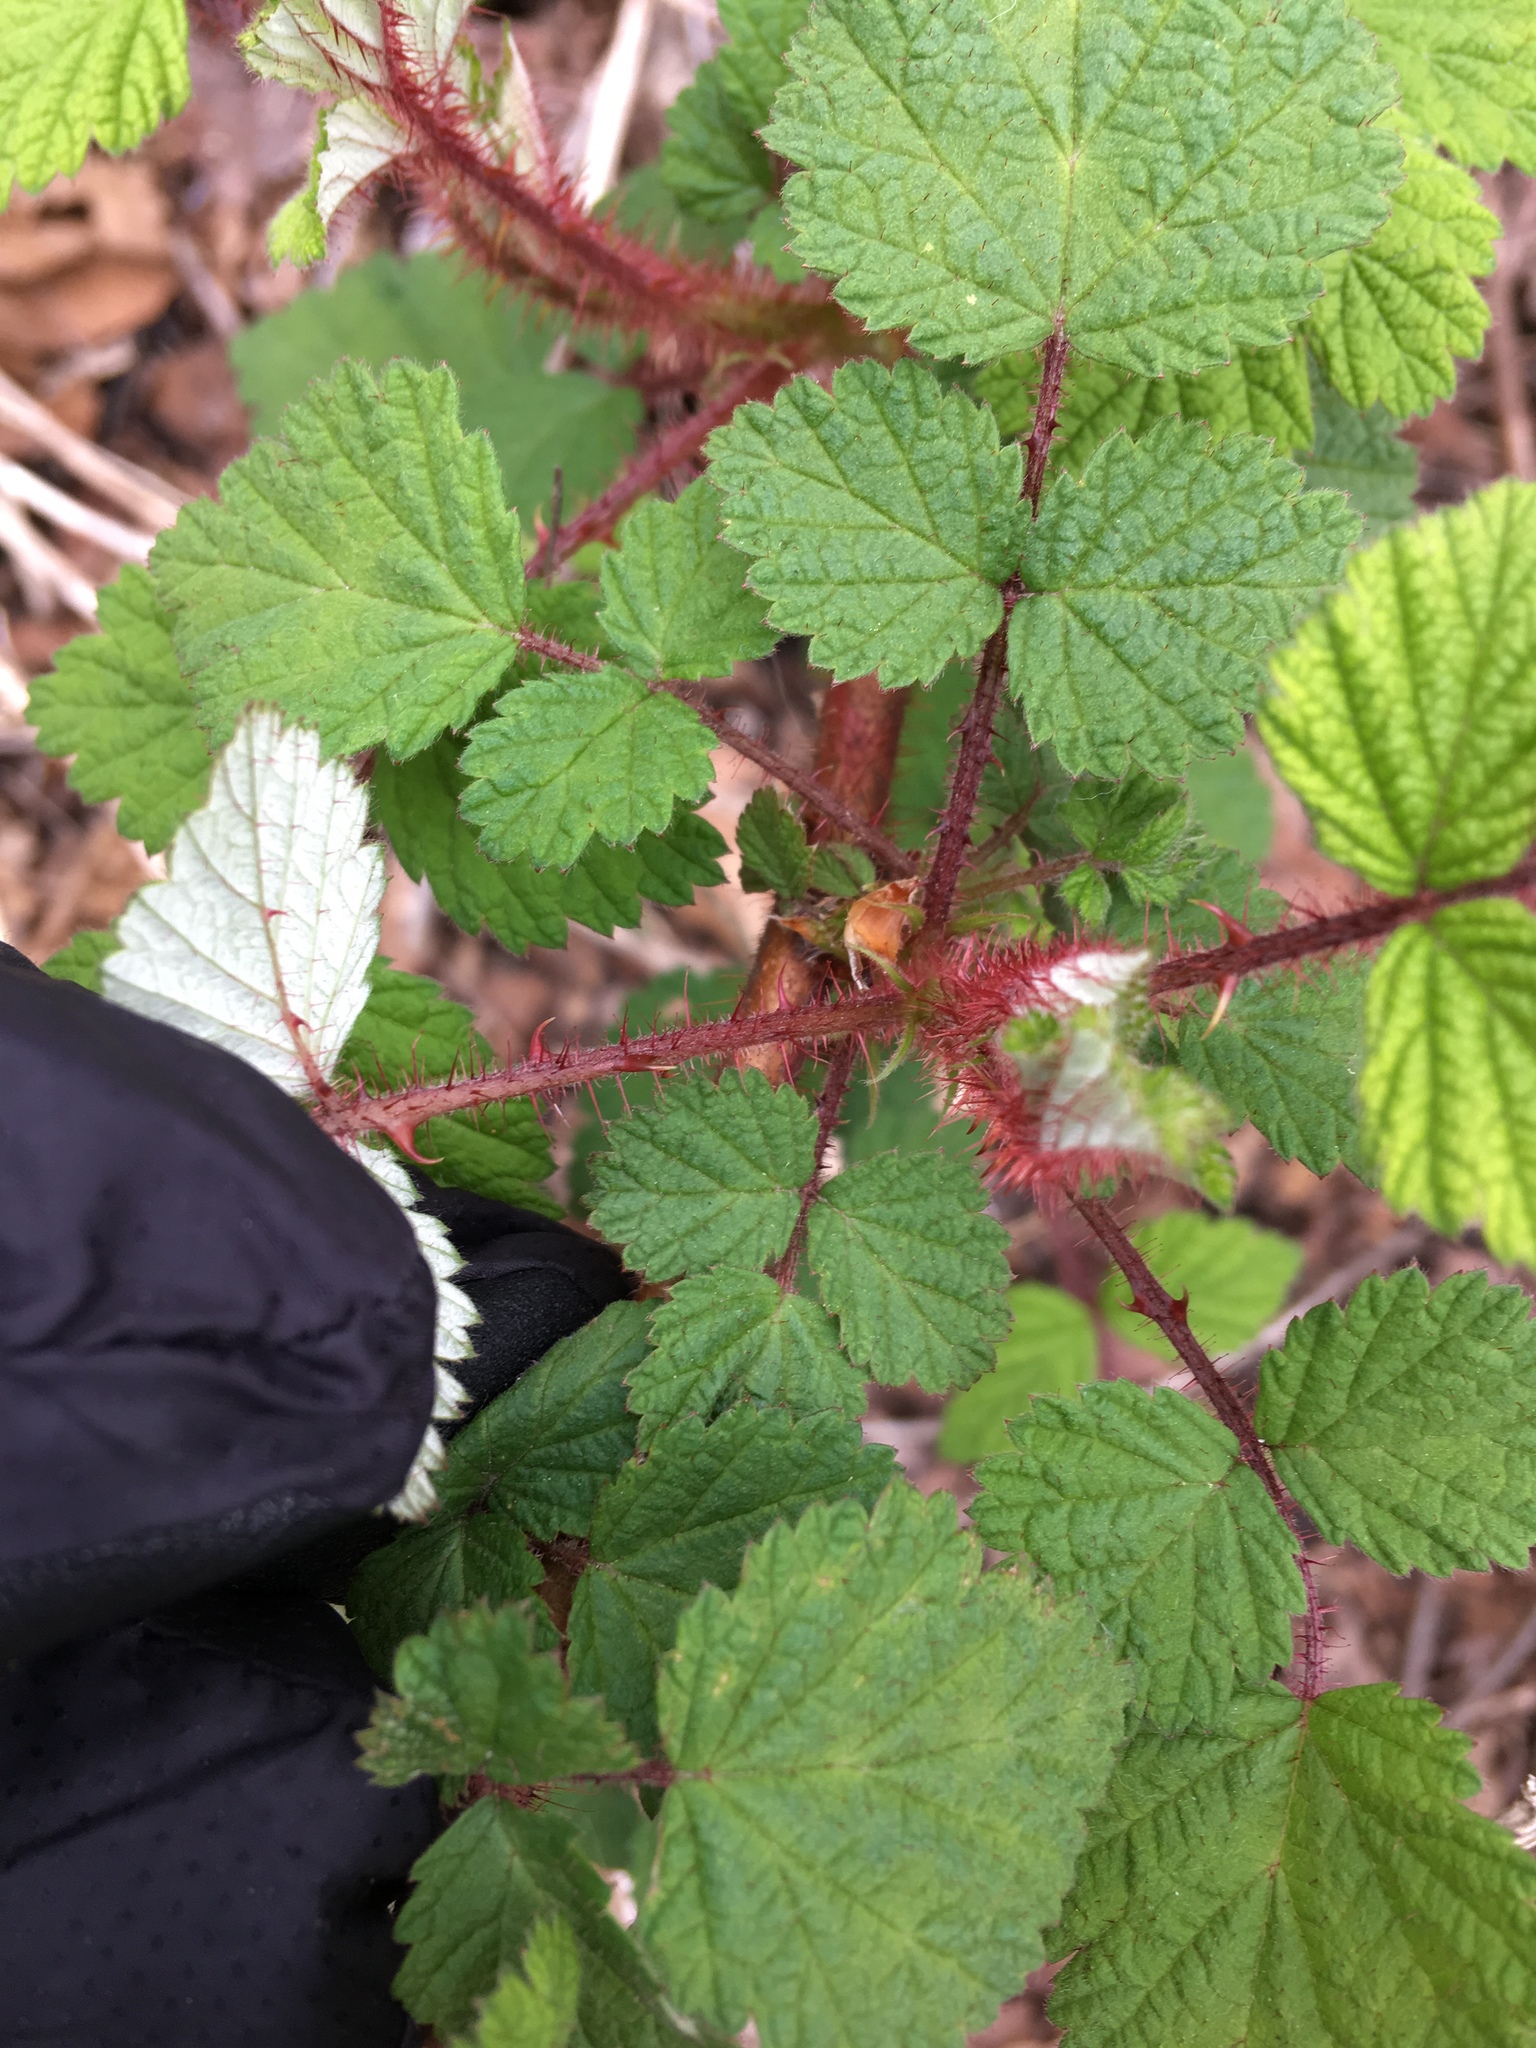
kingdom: Plantae
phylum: Tracheophyta
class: Magnoliopsida
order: Rosales
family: Rosaceae
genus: Rubus
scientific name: Rubus phoenicolasius
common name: Japanese wineberry
